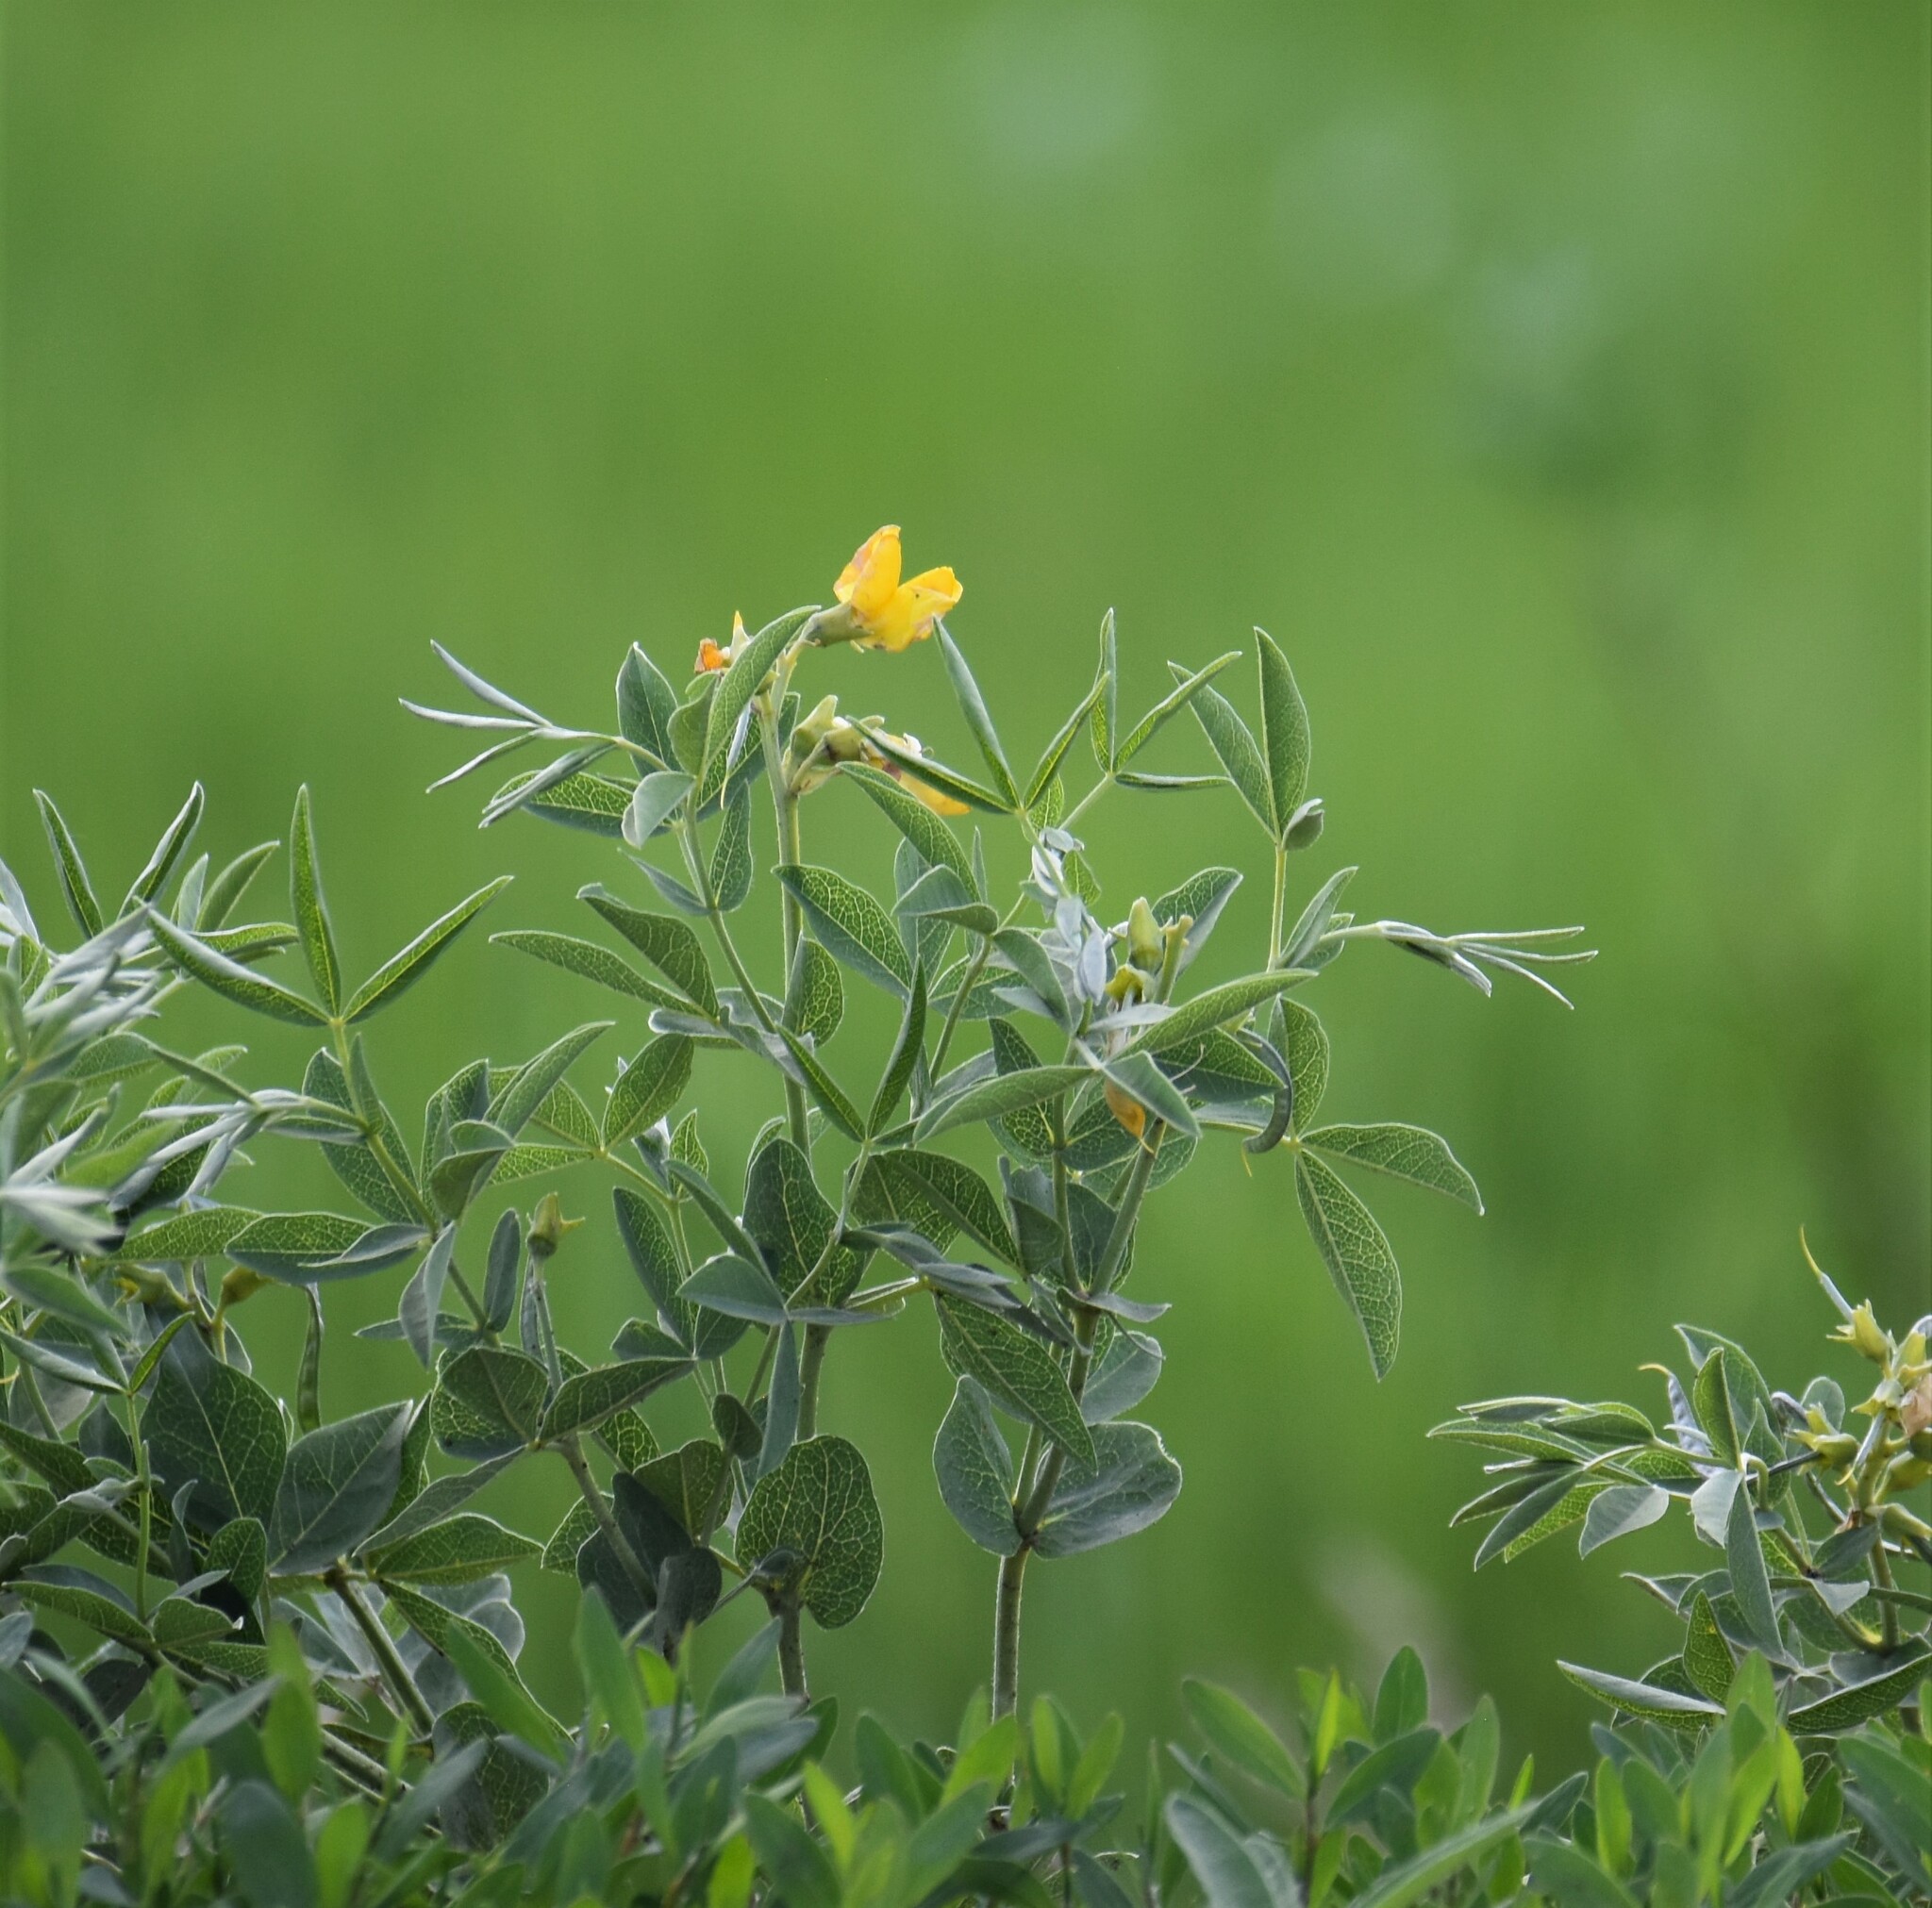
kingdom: Plantae
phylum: Tracheophyta
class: Magnoliopsida
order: Fabales
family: Fabaceae
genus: Thermopsis
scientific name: Thermopsis rhombifolia
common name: Circle-pod-pea
